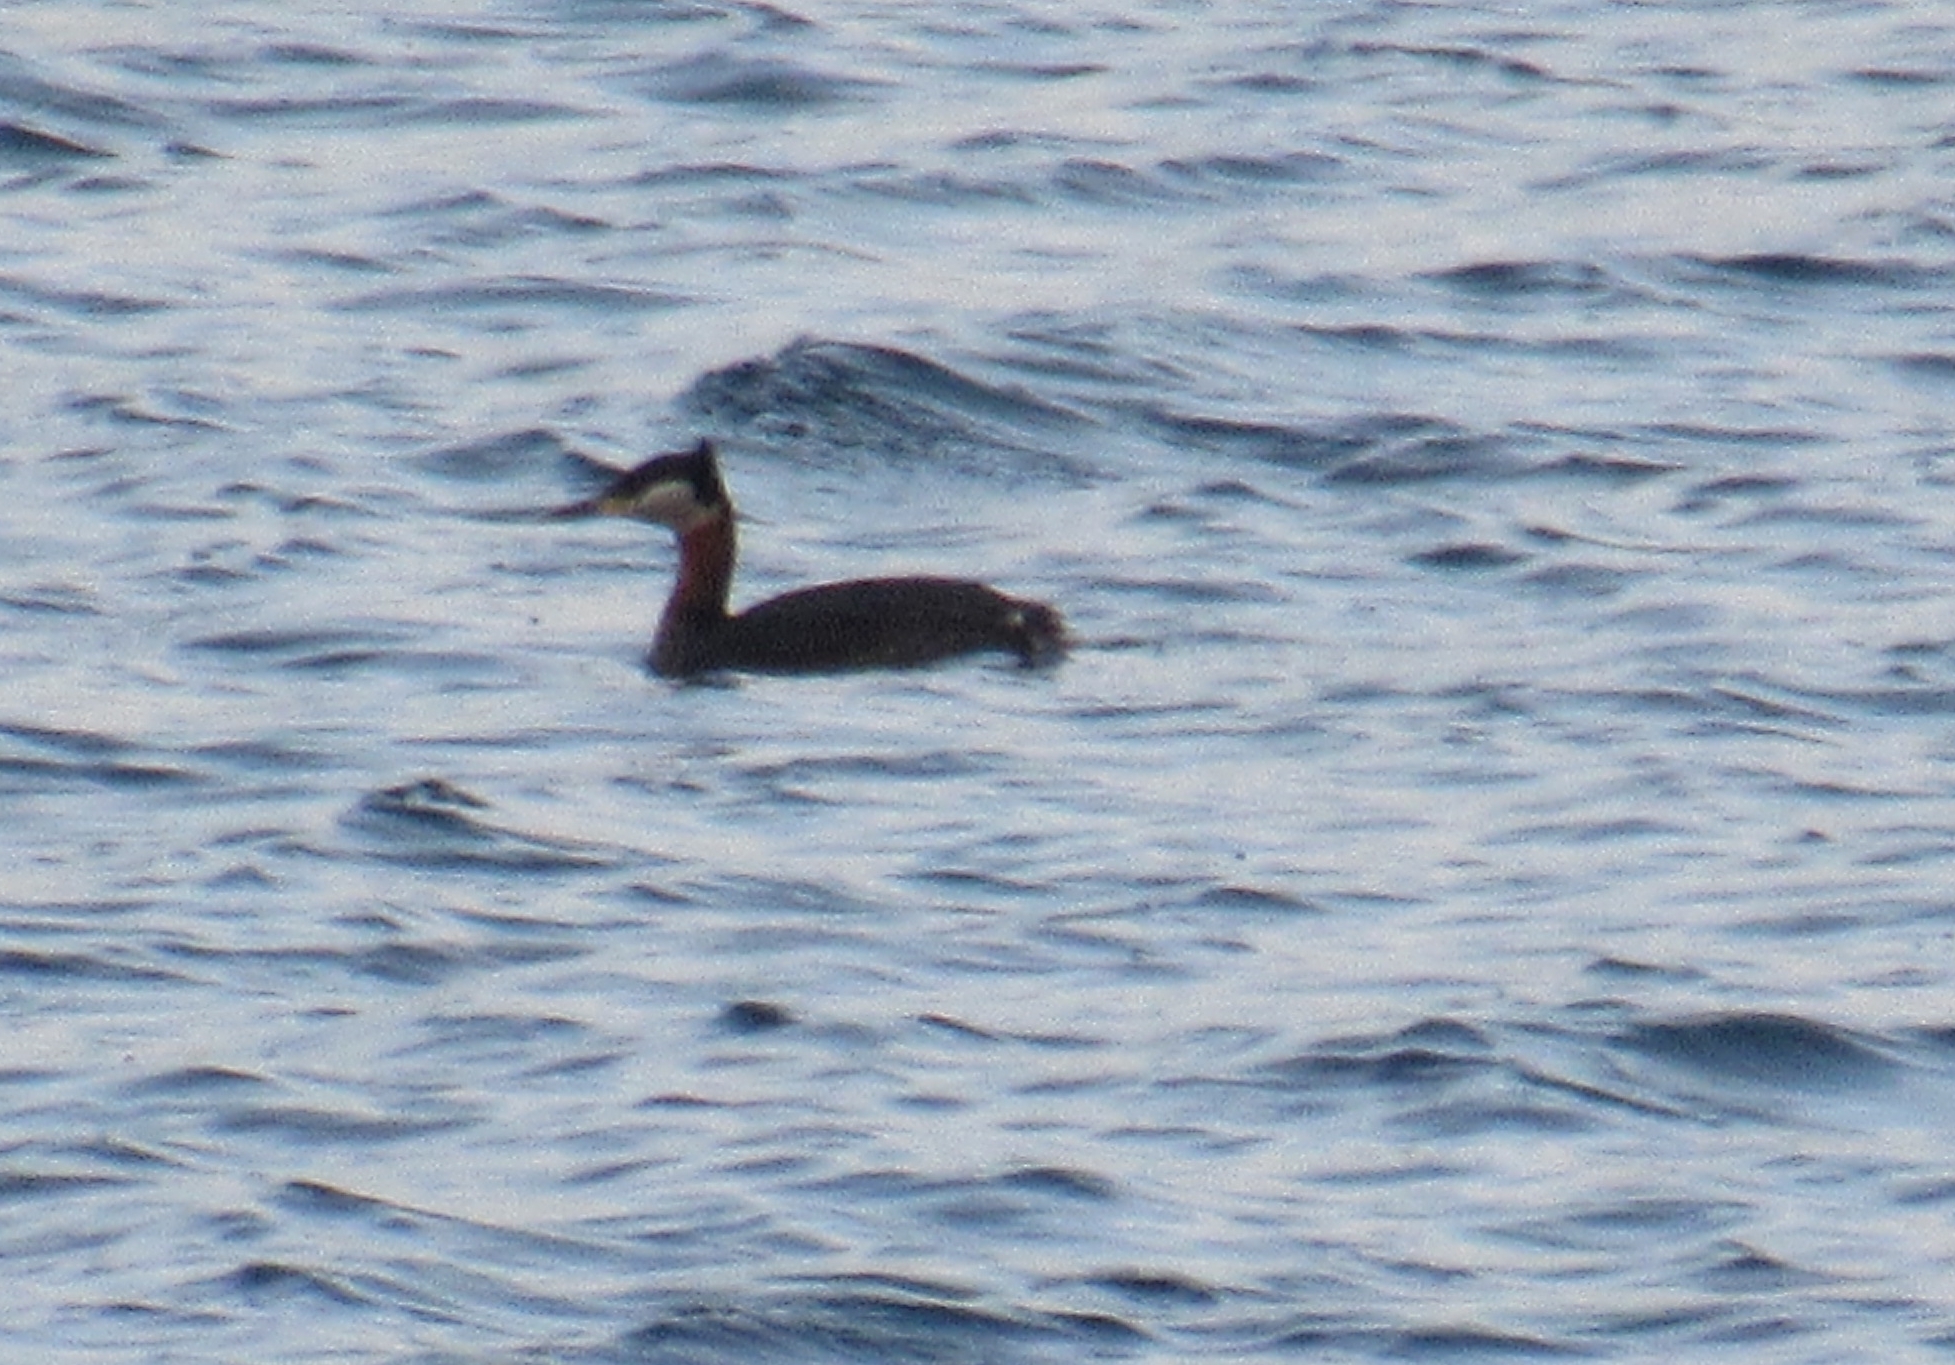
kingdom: Animalia
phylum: Chordata
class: Aves
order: Podicipediformes
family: Podicipedidae
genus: Podiceps
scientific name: Podiceps grisegena
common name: Red-necked grebe
